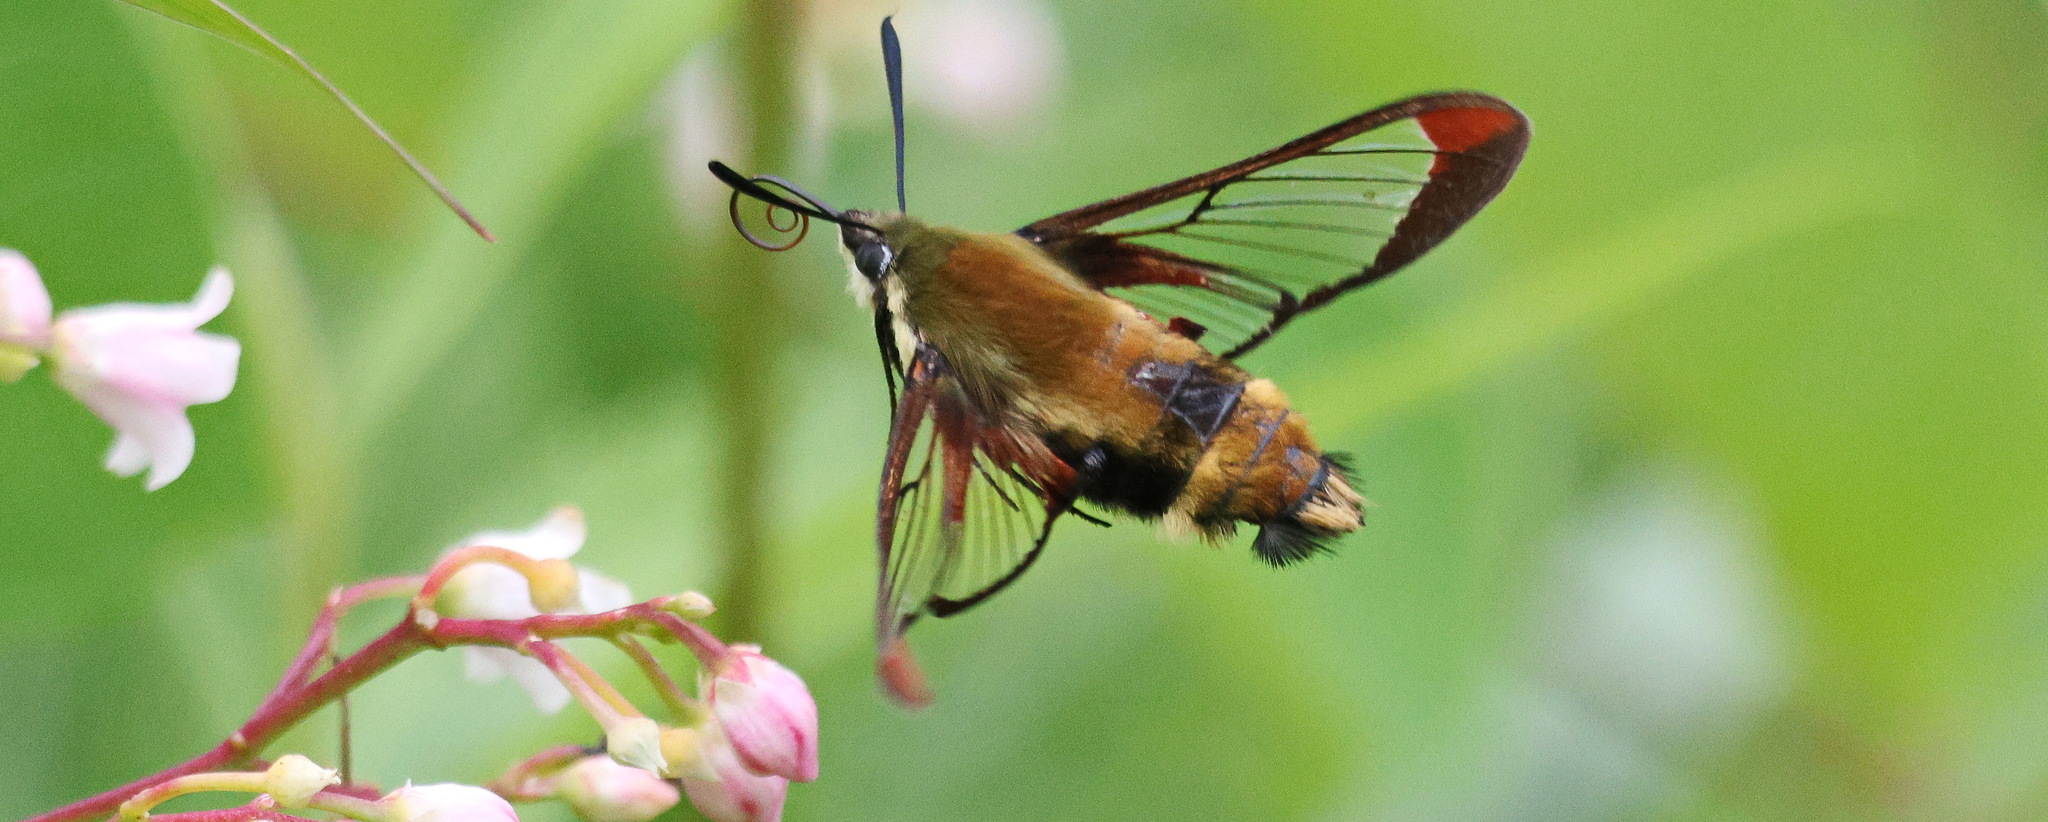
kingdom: Animalia
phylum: Arthropoda
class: Insecta
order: Lepidoptera
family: Sphingidae
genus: Hemaris
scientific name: Hemaris diffinis
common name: Bumblebee moth
